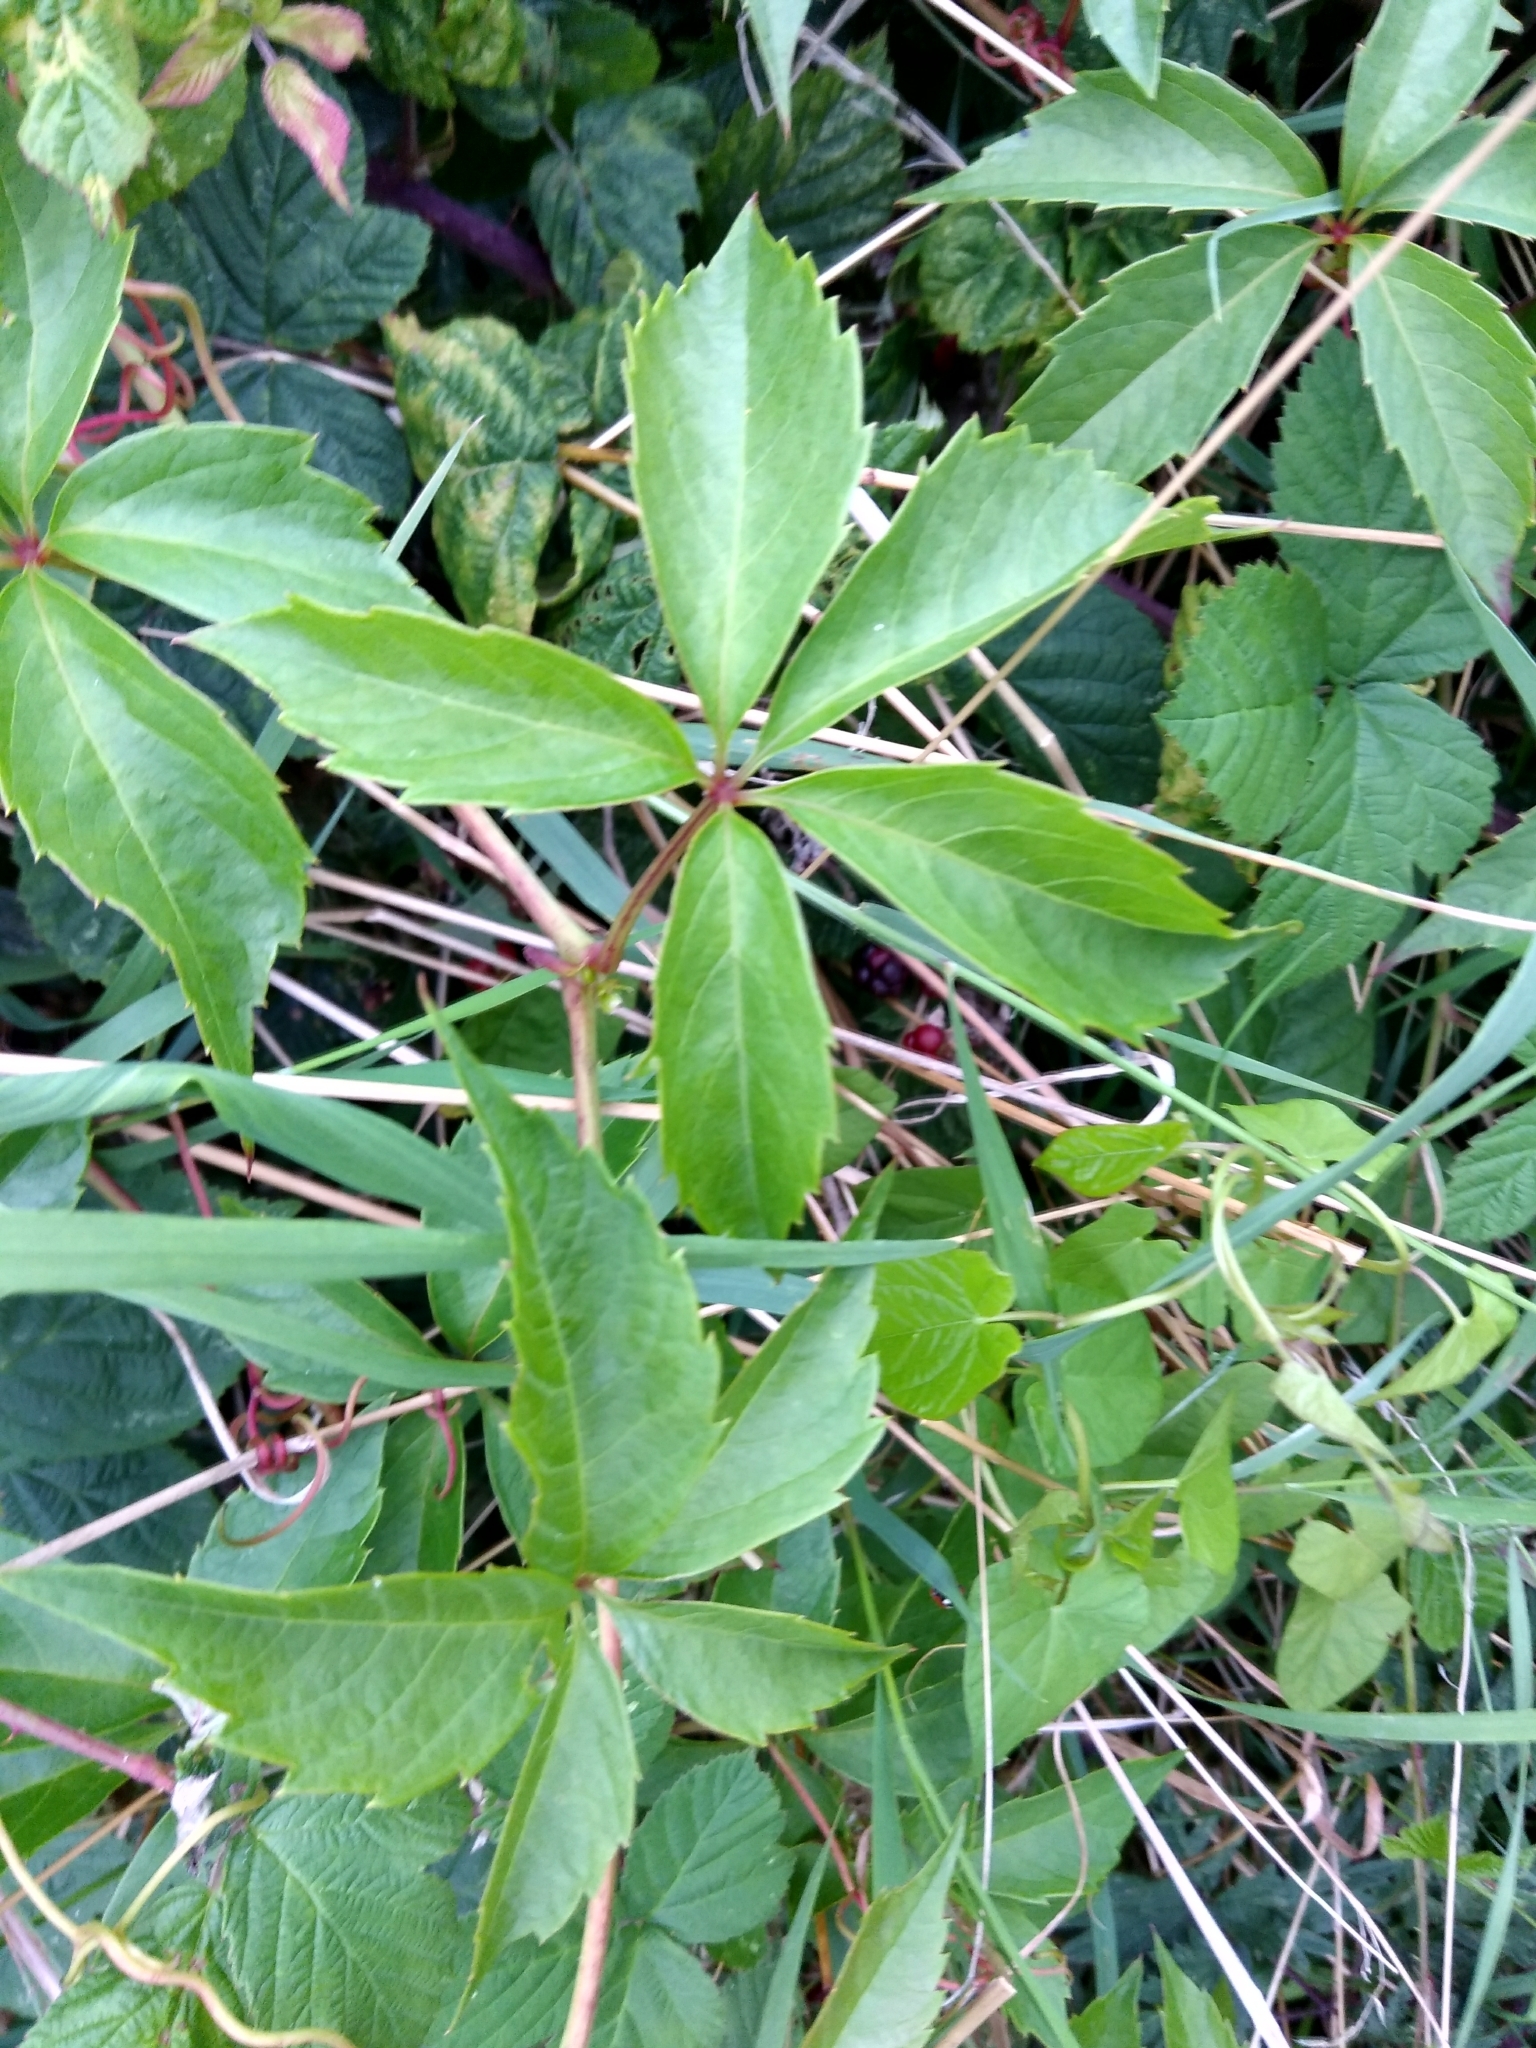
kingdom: Plantae
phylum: Tracheophyta
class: Magnoliopsida
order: Vitales
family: Vitaceae
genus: Parthenocissus
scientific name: Parthenocissus quinquefolia
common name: Virginia-creeper
